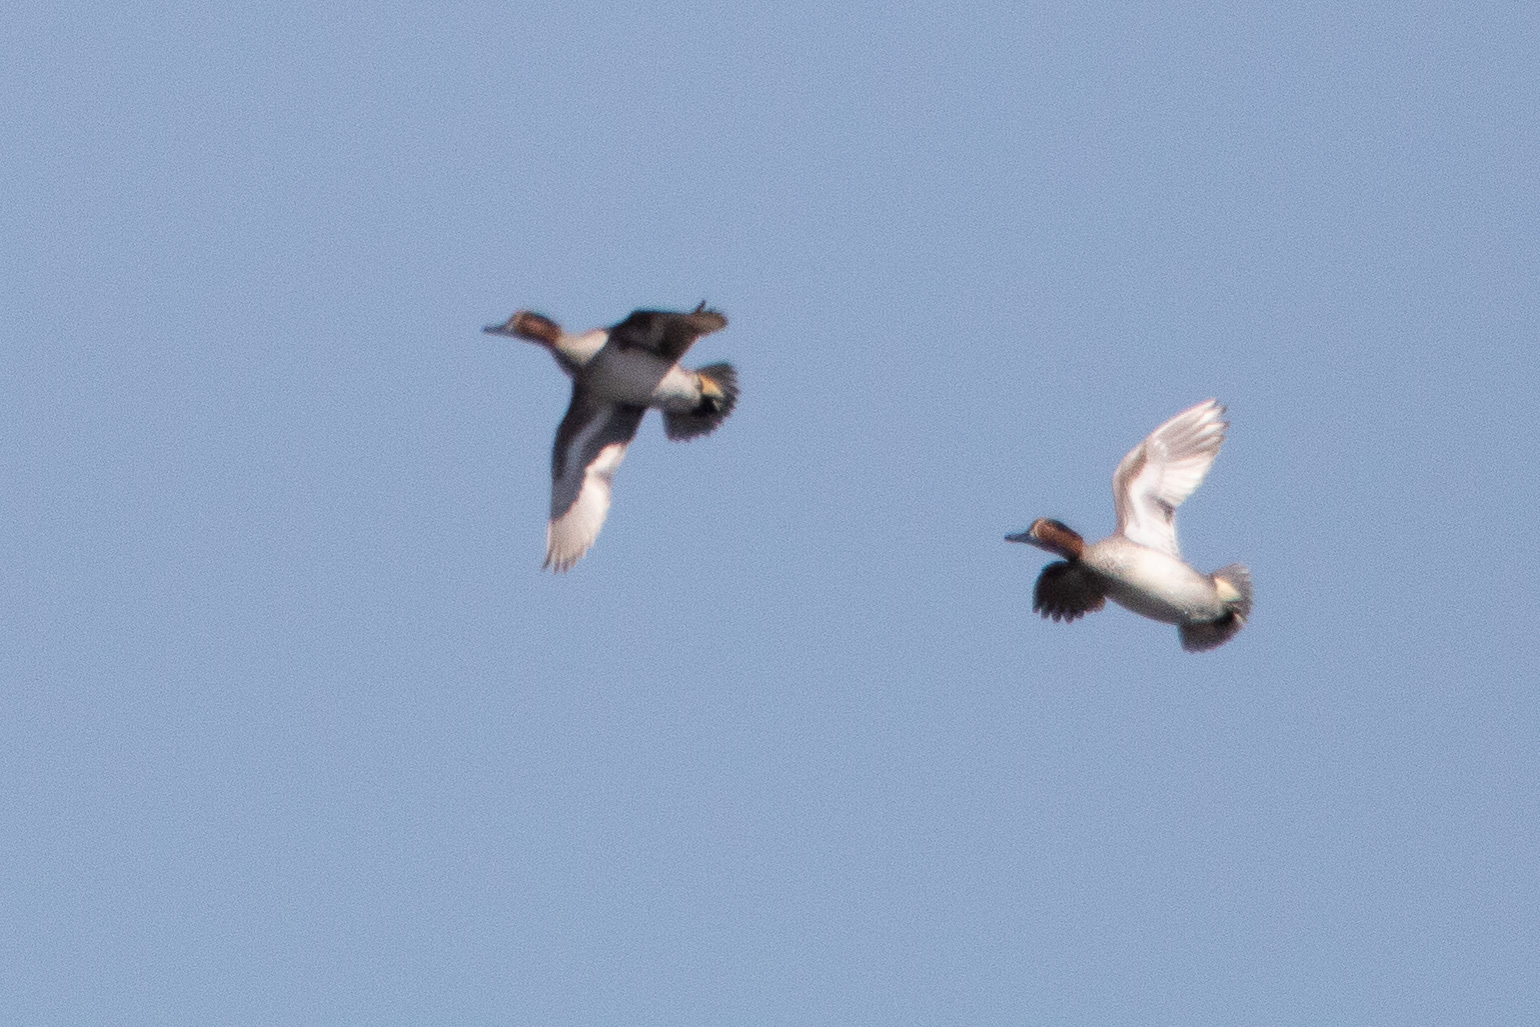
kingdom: Animalia
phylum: Chordata
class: Aves
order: Anseriformes
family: Anatidae
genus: Anas
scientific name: Anas crecca
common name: Eurasian teal
